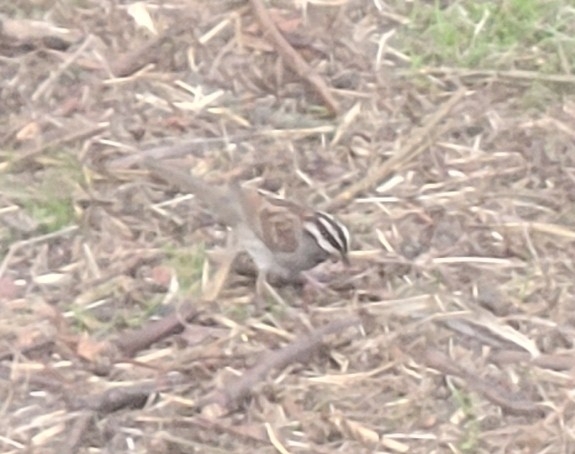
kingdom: Animalia
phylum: Chordata
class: Aves
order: Passeriformes
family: Passerellidae
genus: Zonotrichia
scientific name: Zonotrichia albicollis
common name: White-throated sparrow
